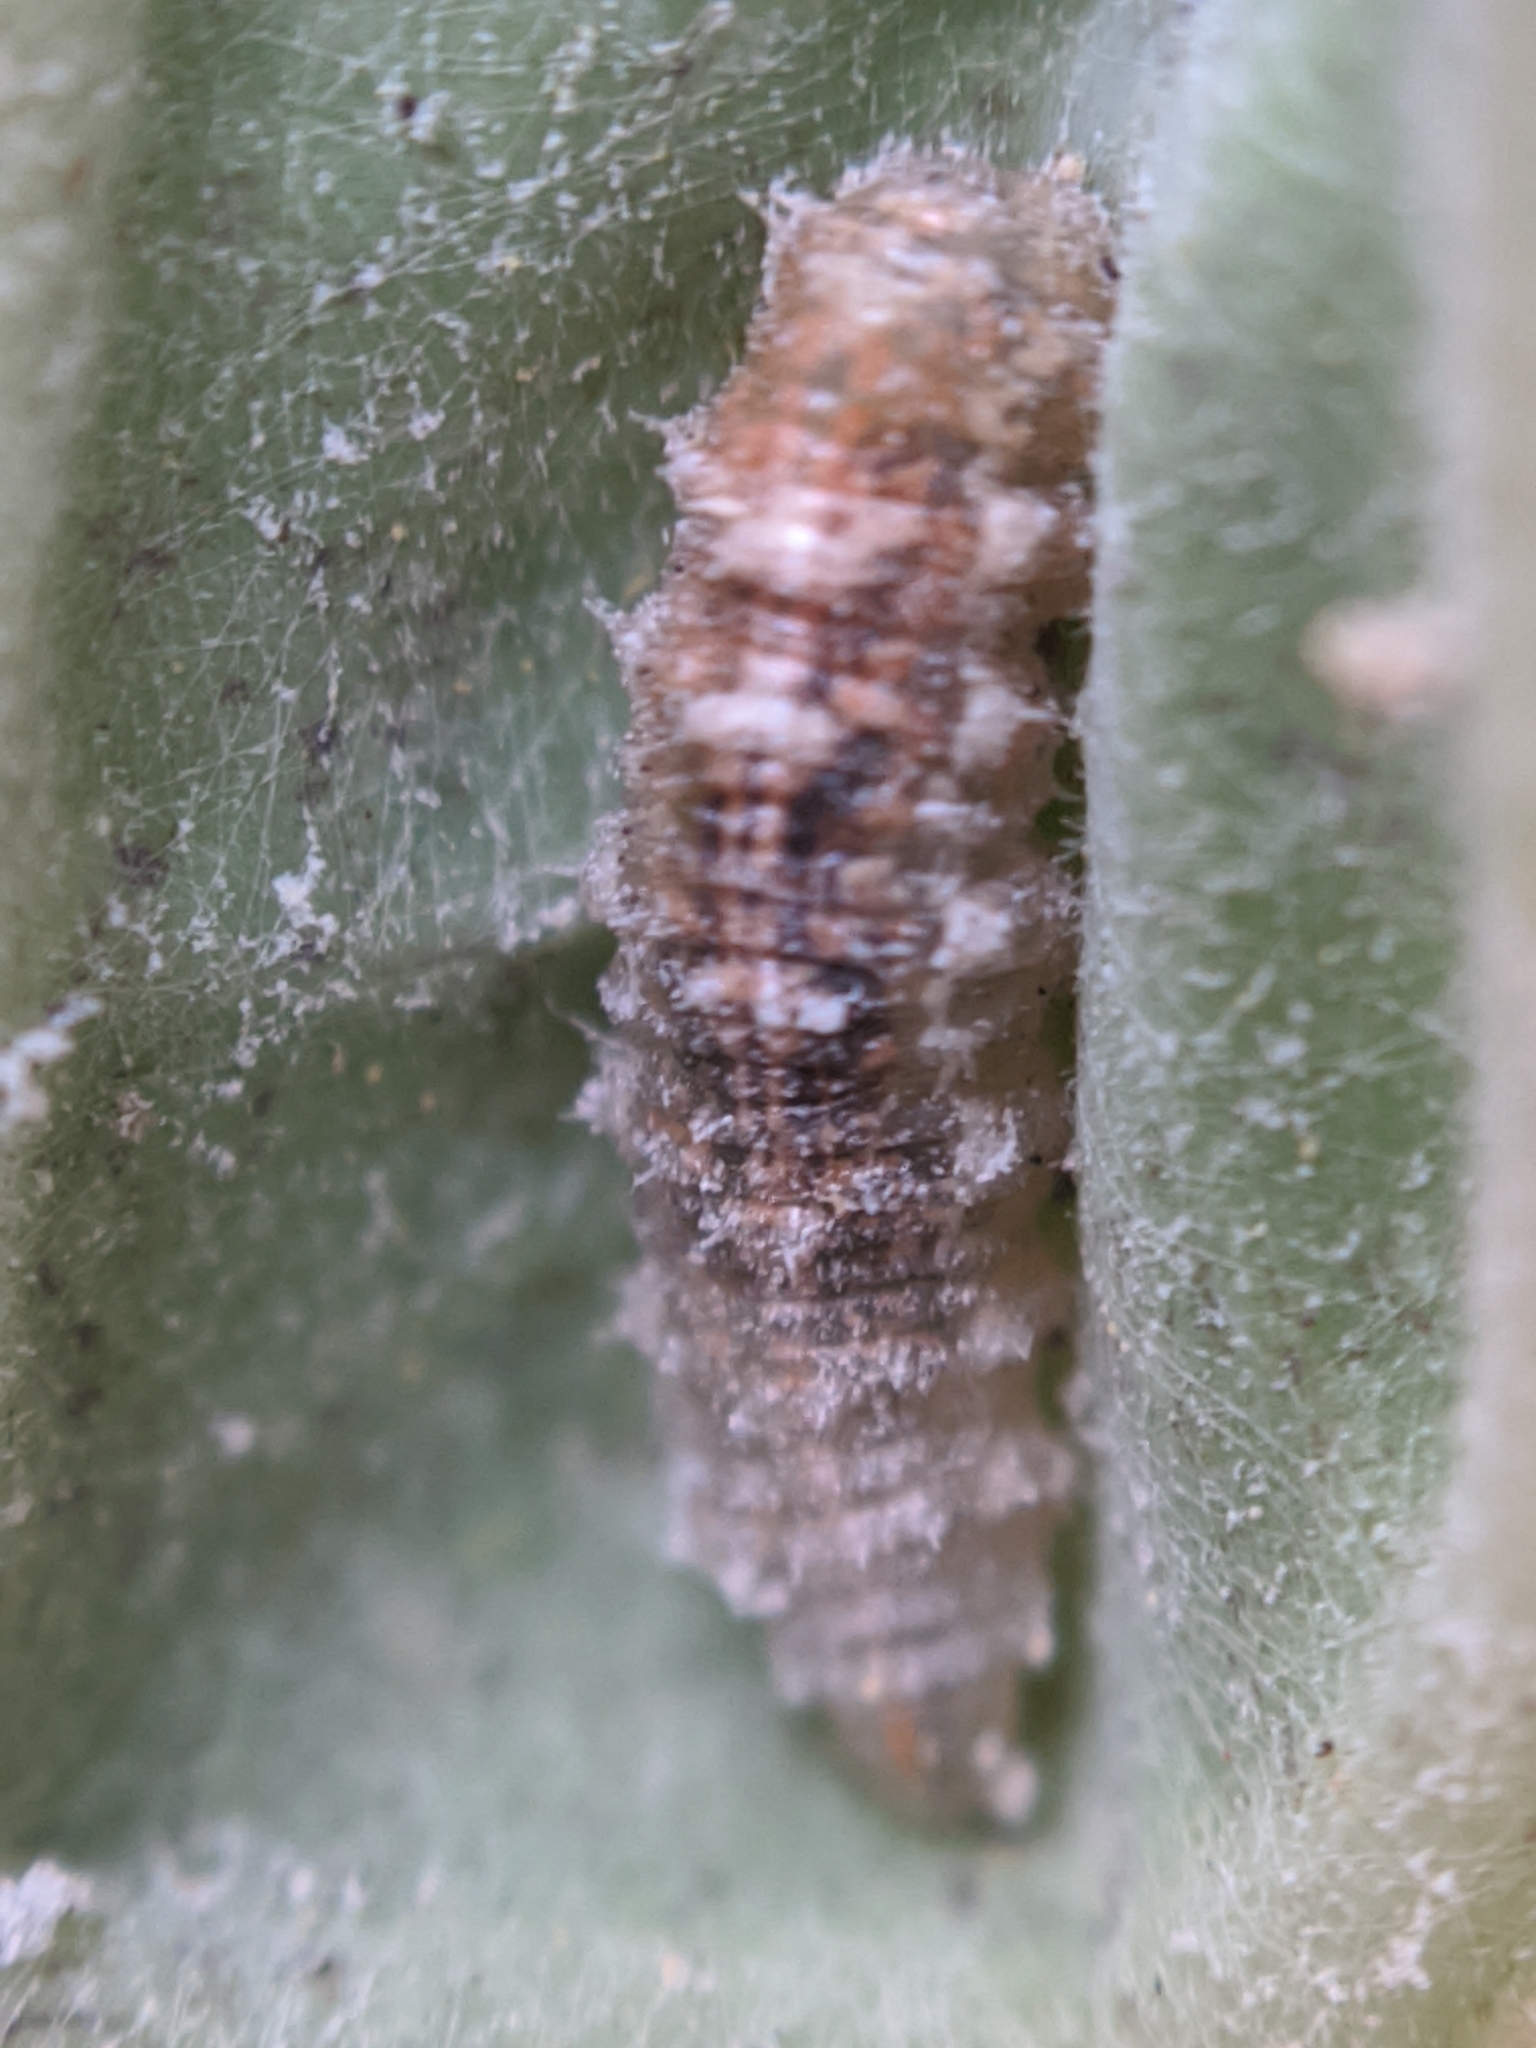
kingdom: Animalia
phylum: Arthropoda
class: Insecta
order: Diptera
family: Syrphidae
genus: Eupeodes
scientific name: Eupeodes fumipennis
